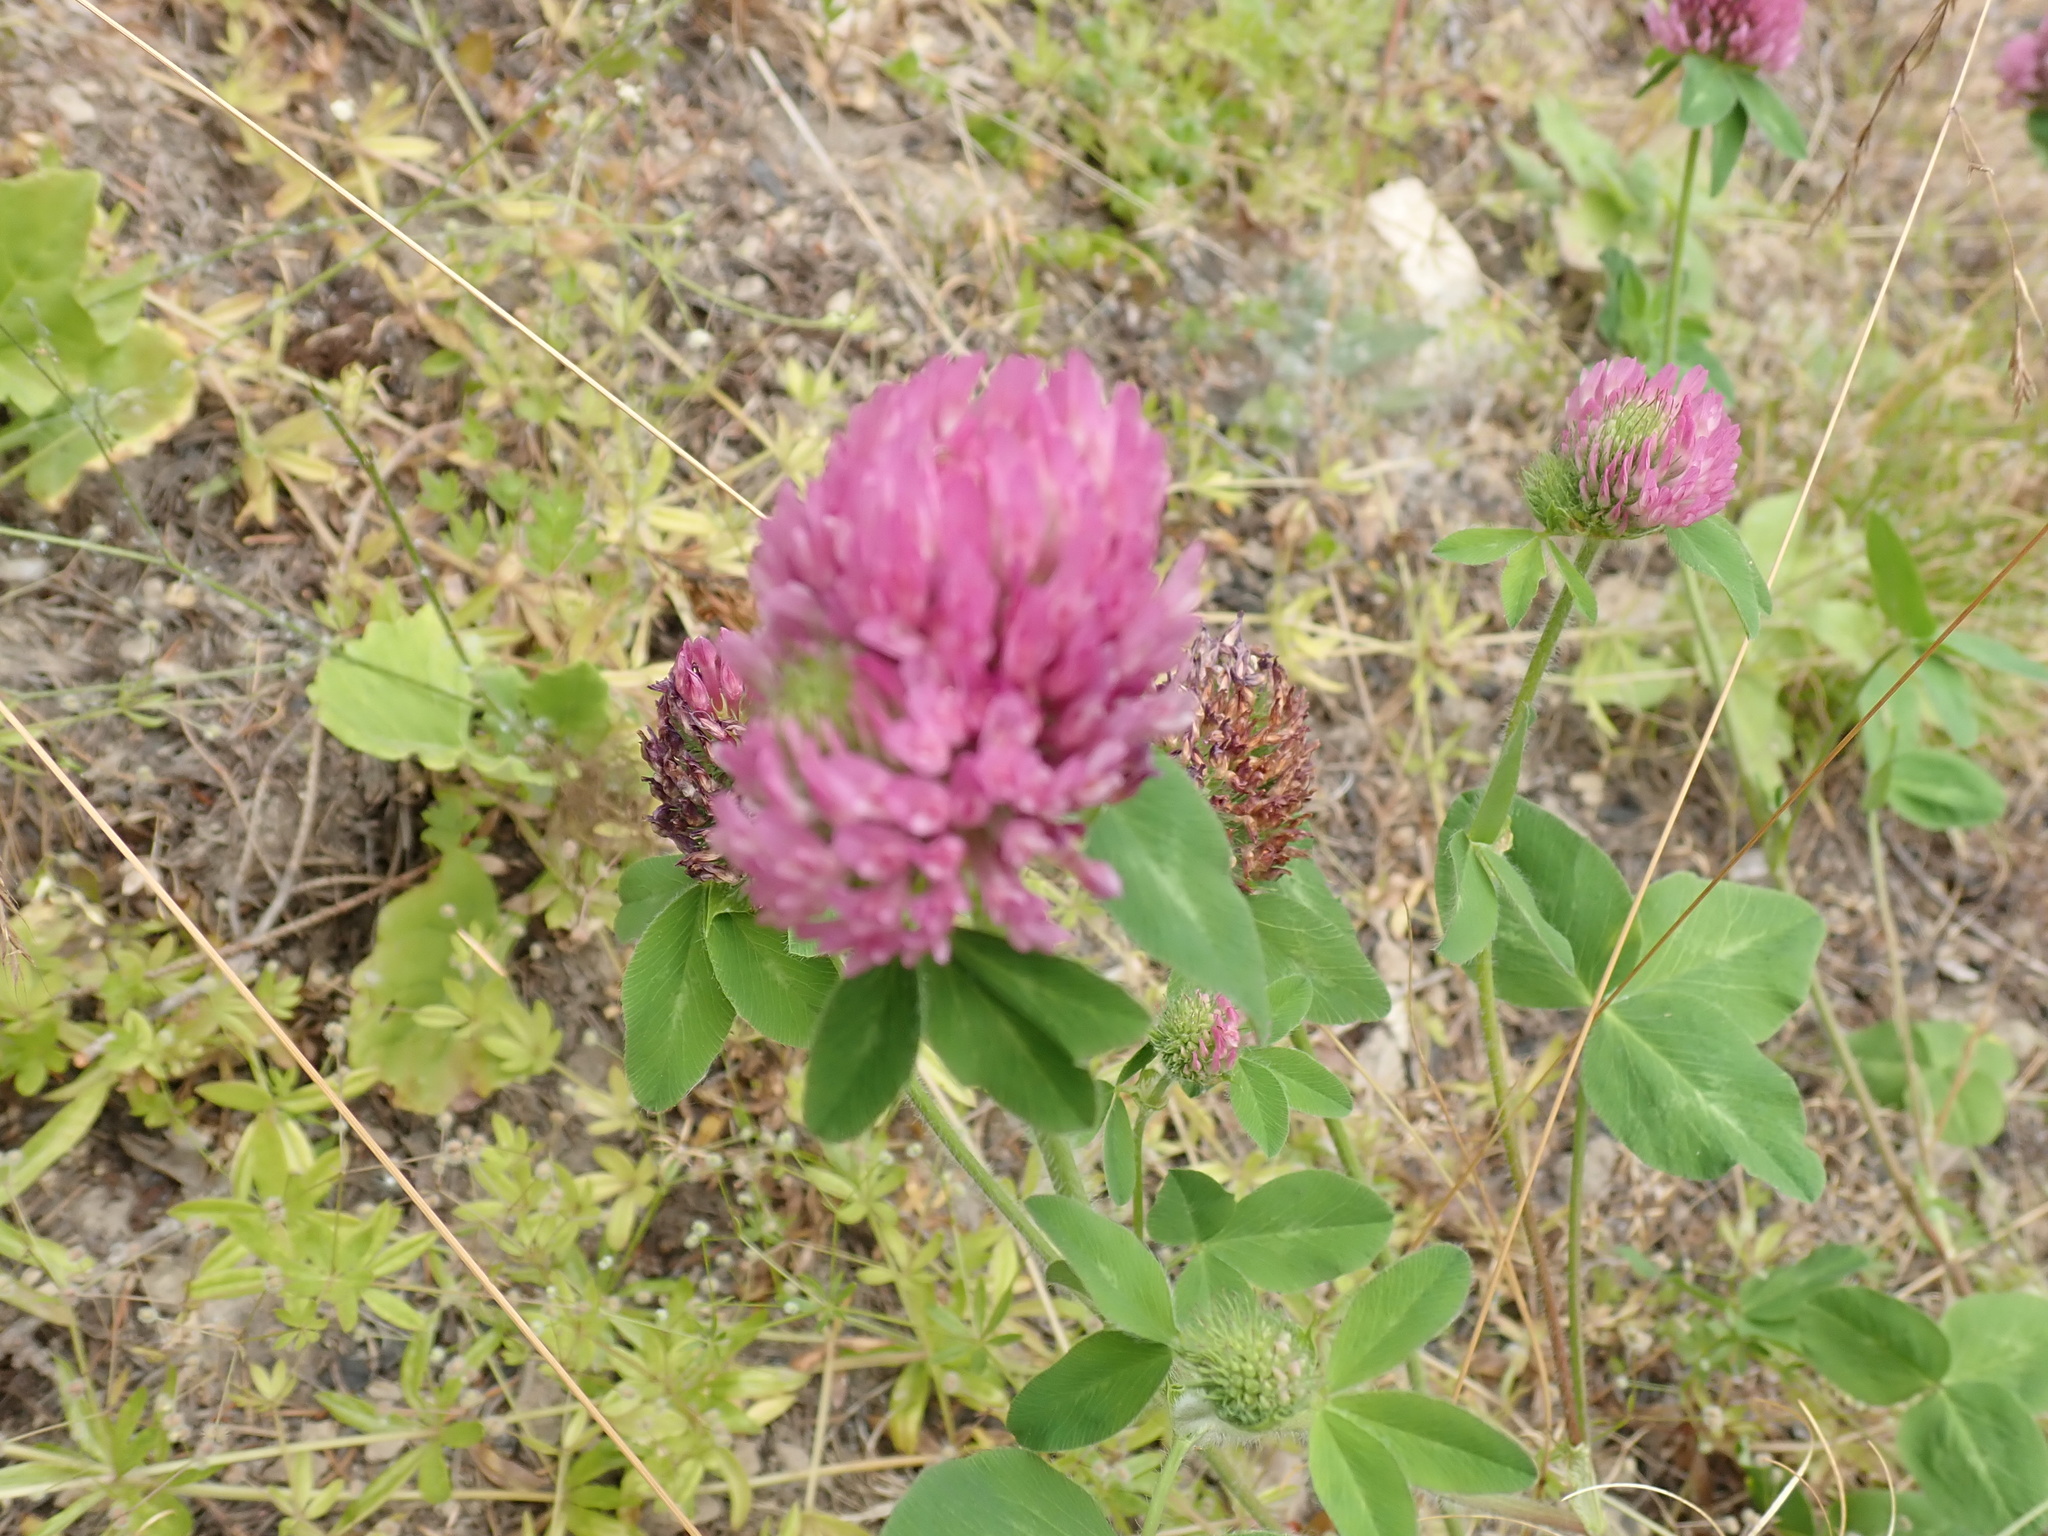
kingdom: Plantae
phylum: Tracheophyta
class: Magnoliopsida
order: Fabales
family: Fabaceae
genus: Trifolium
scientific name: Trifolium pratense
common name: Red clover
